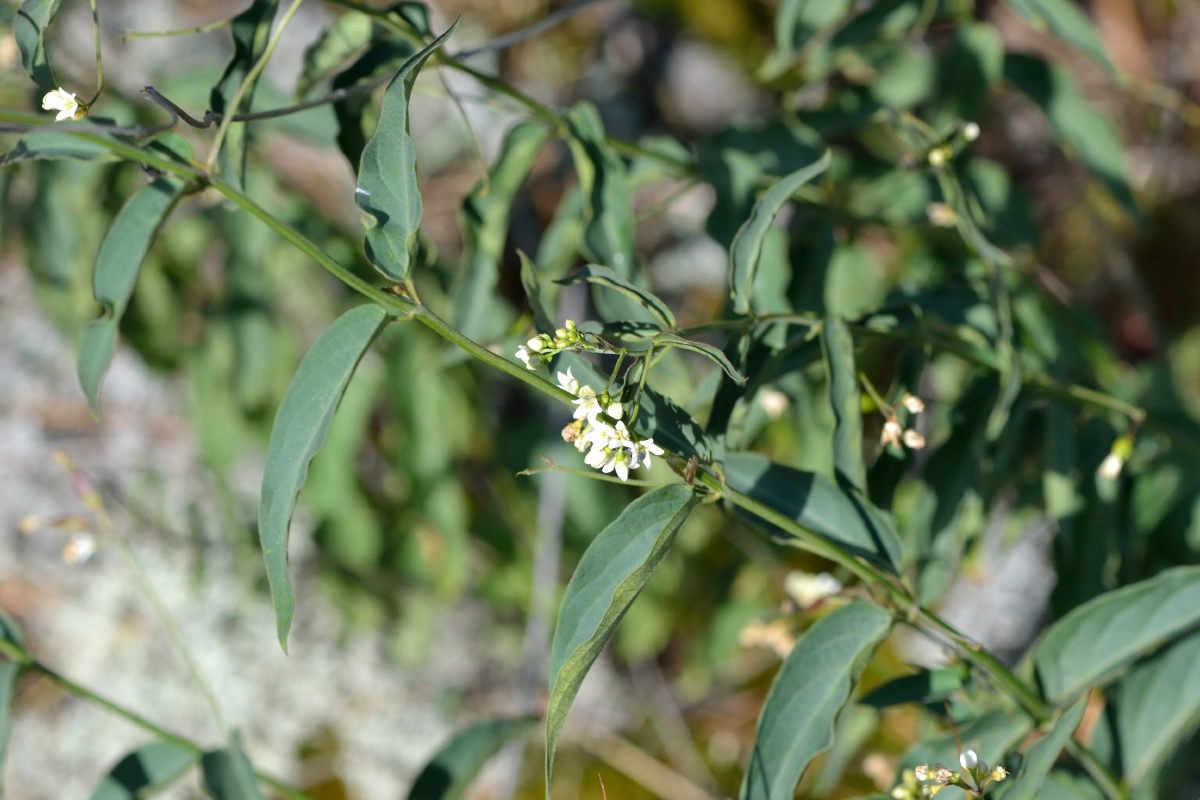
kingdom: Plantae
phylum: Tracheophyta
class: Magnoliopsida
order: Gentianales
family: Apocynaceae
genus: Vincetoxicum
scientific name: Vincetoxicum hirundinaria
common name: White swallowwort
